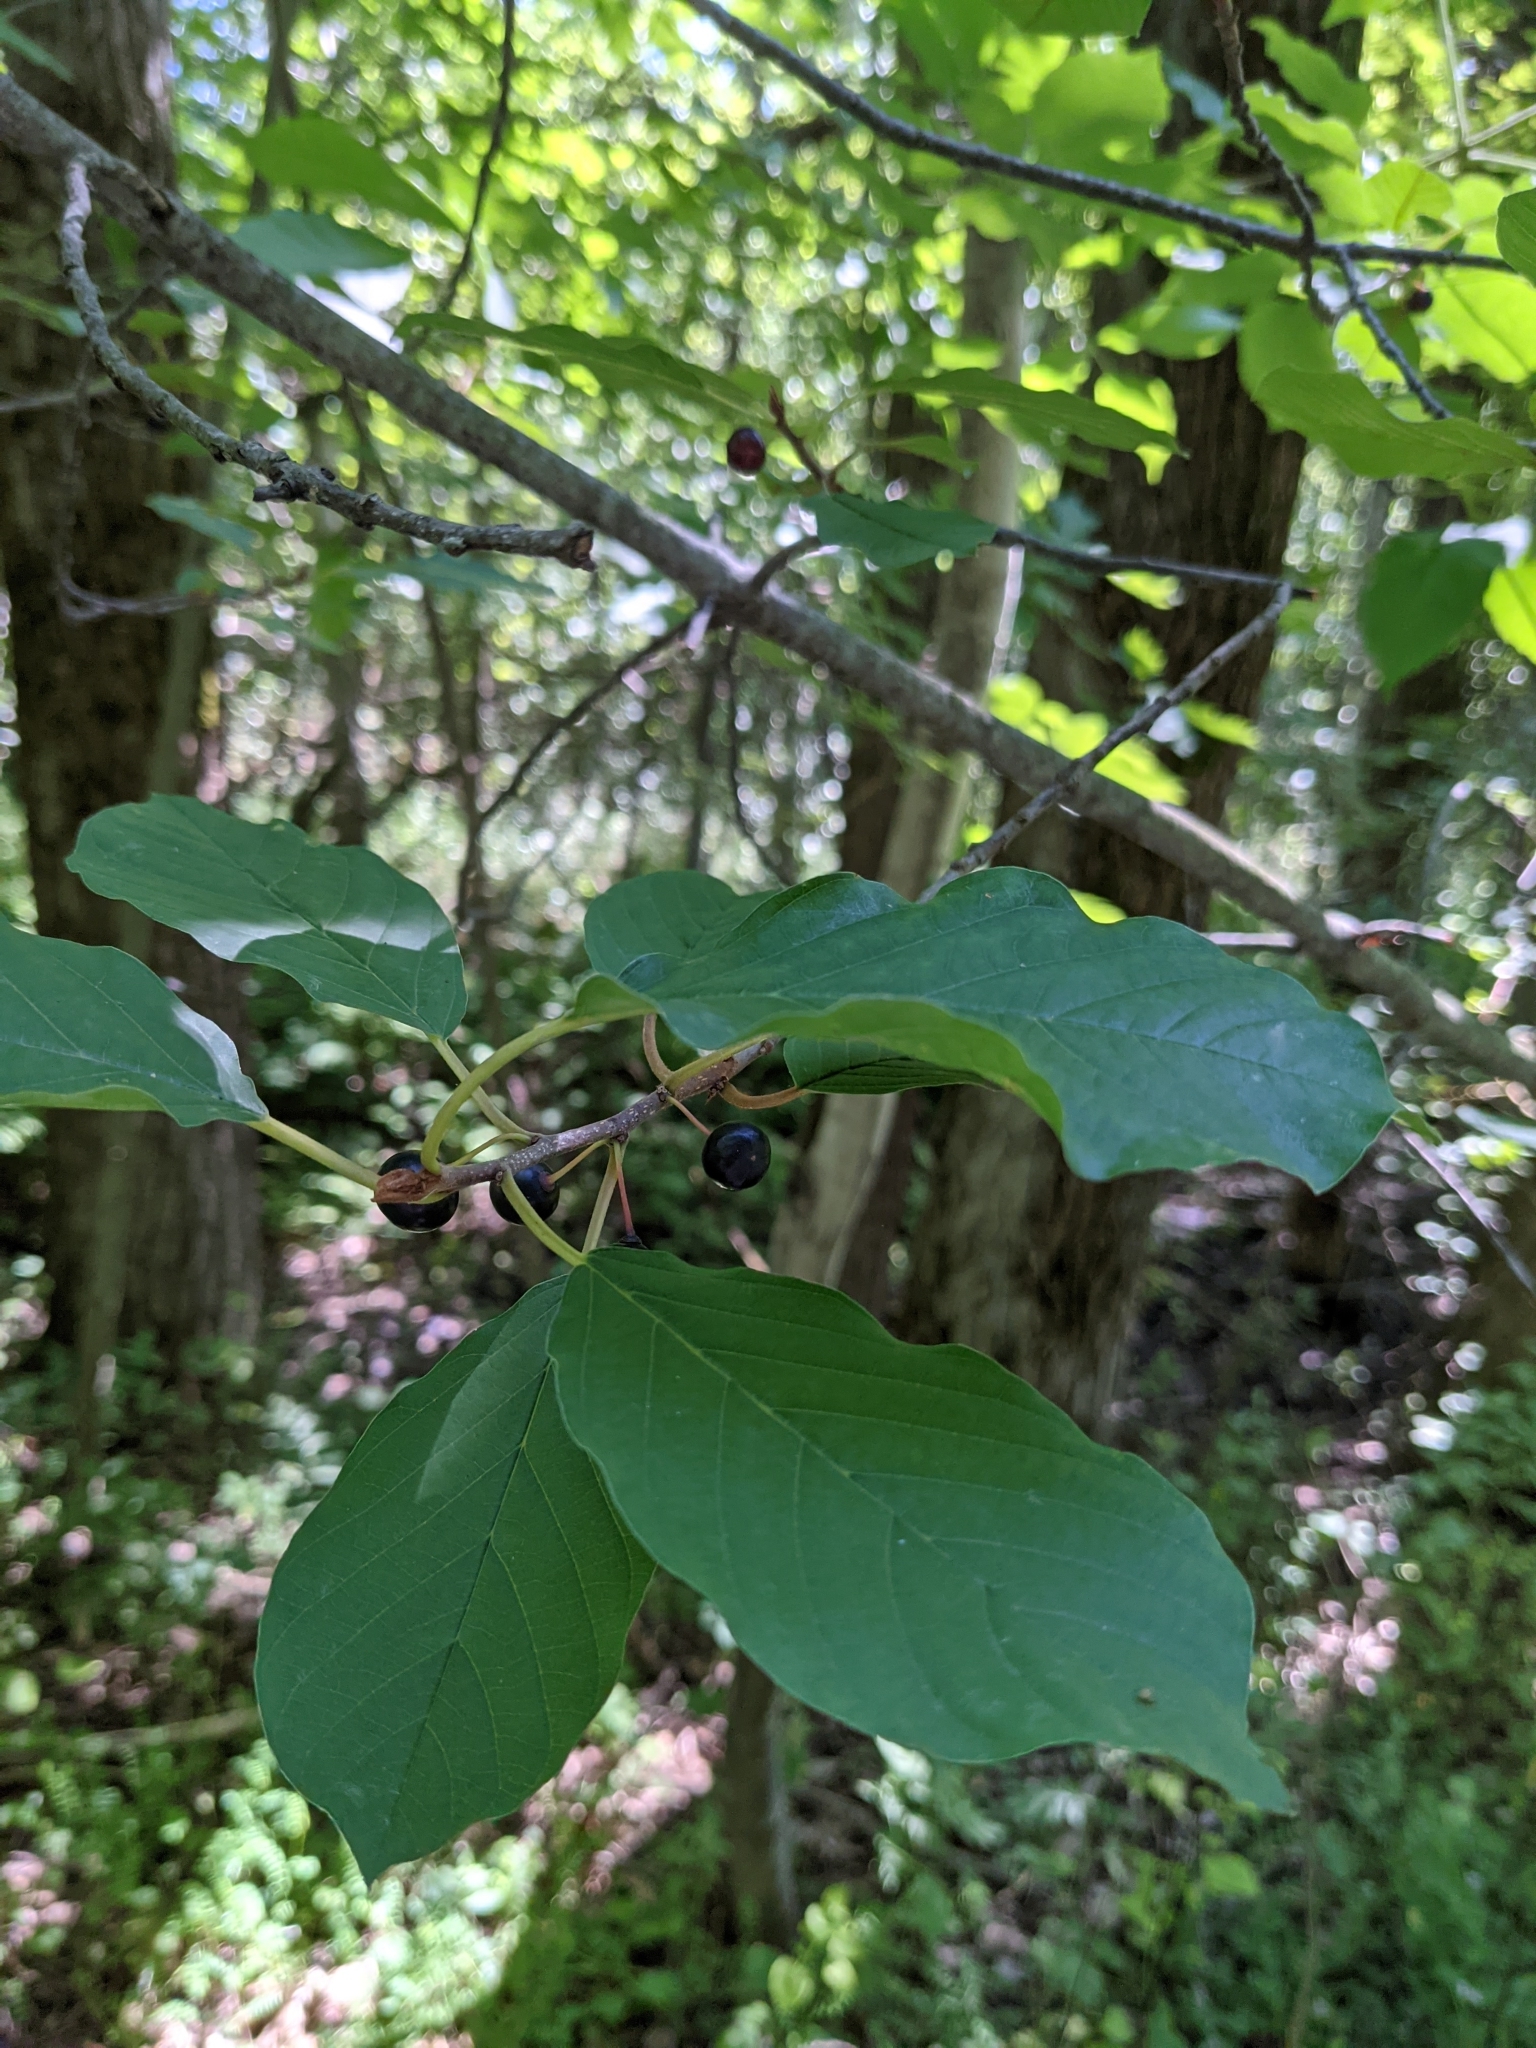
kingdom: Plantae
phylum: Tracheophyta
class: Magnoliopsida
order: Rosales
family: Rhamnaceae
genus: Frangula
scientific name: Frangula alnus
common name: Alder buckthorn
